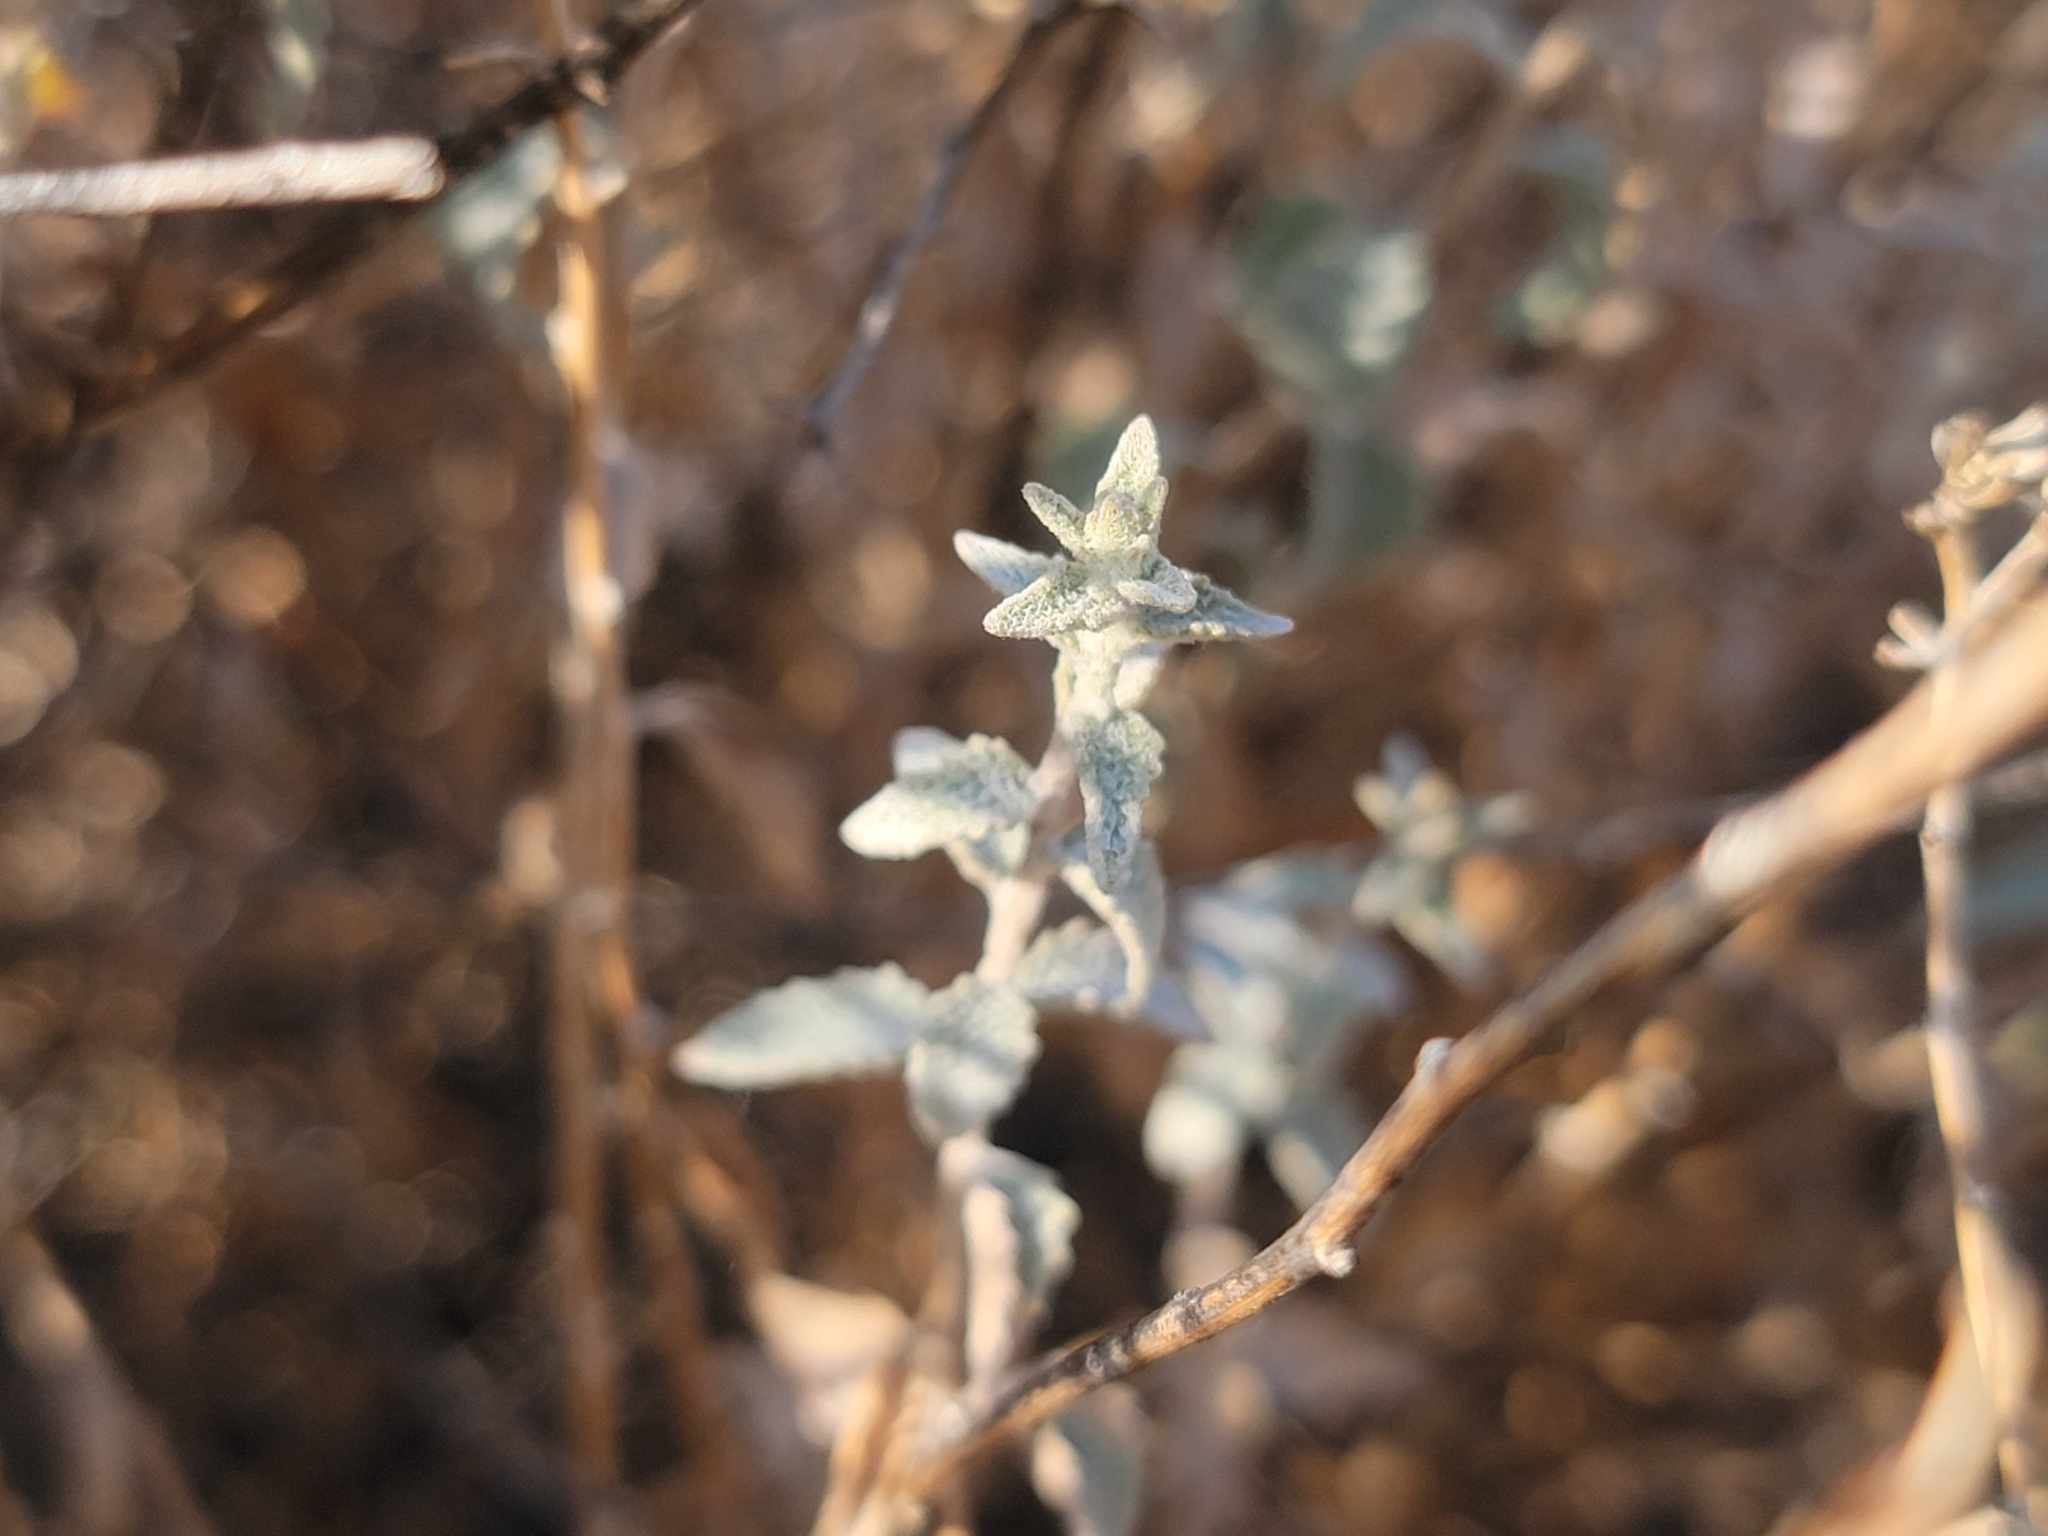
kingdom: Plantae
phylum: Tracheophyta
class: Magnoliopsida
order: Asterales
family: Asteraceae
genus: Brickellia
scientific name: Brickellia nevinii
